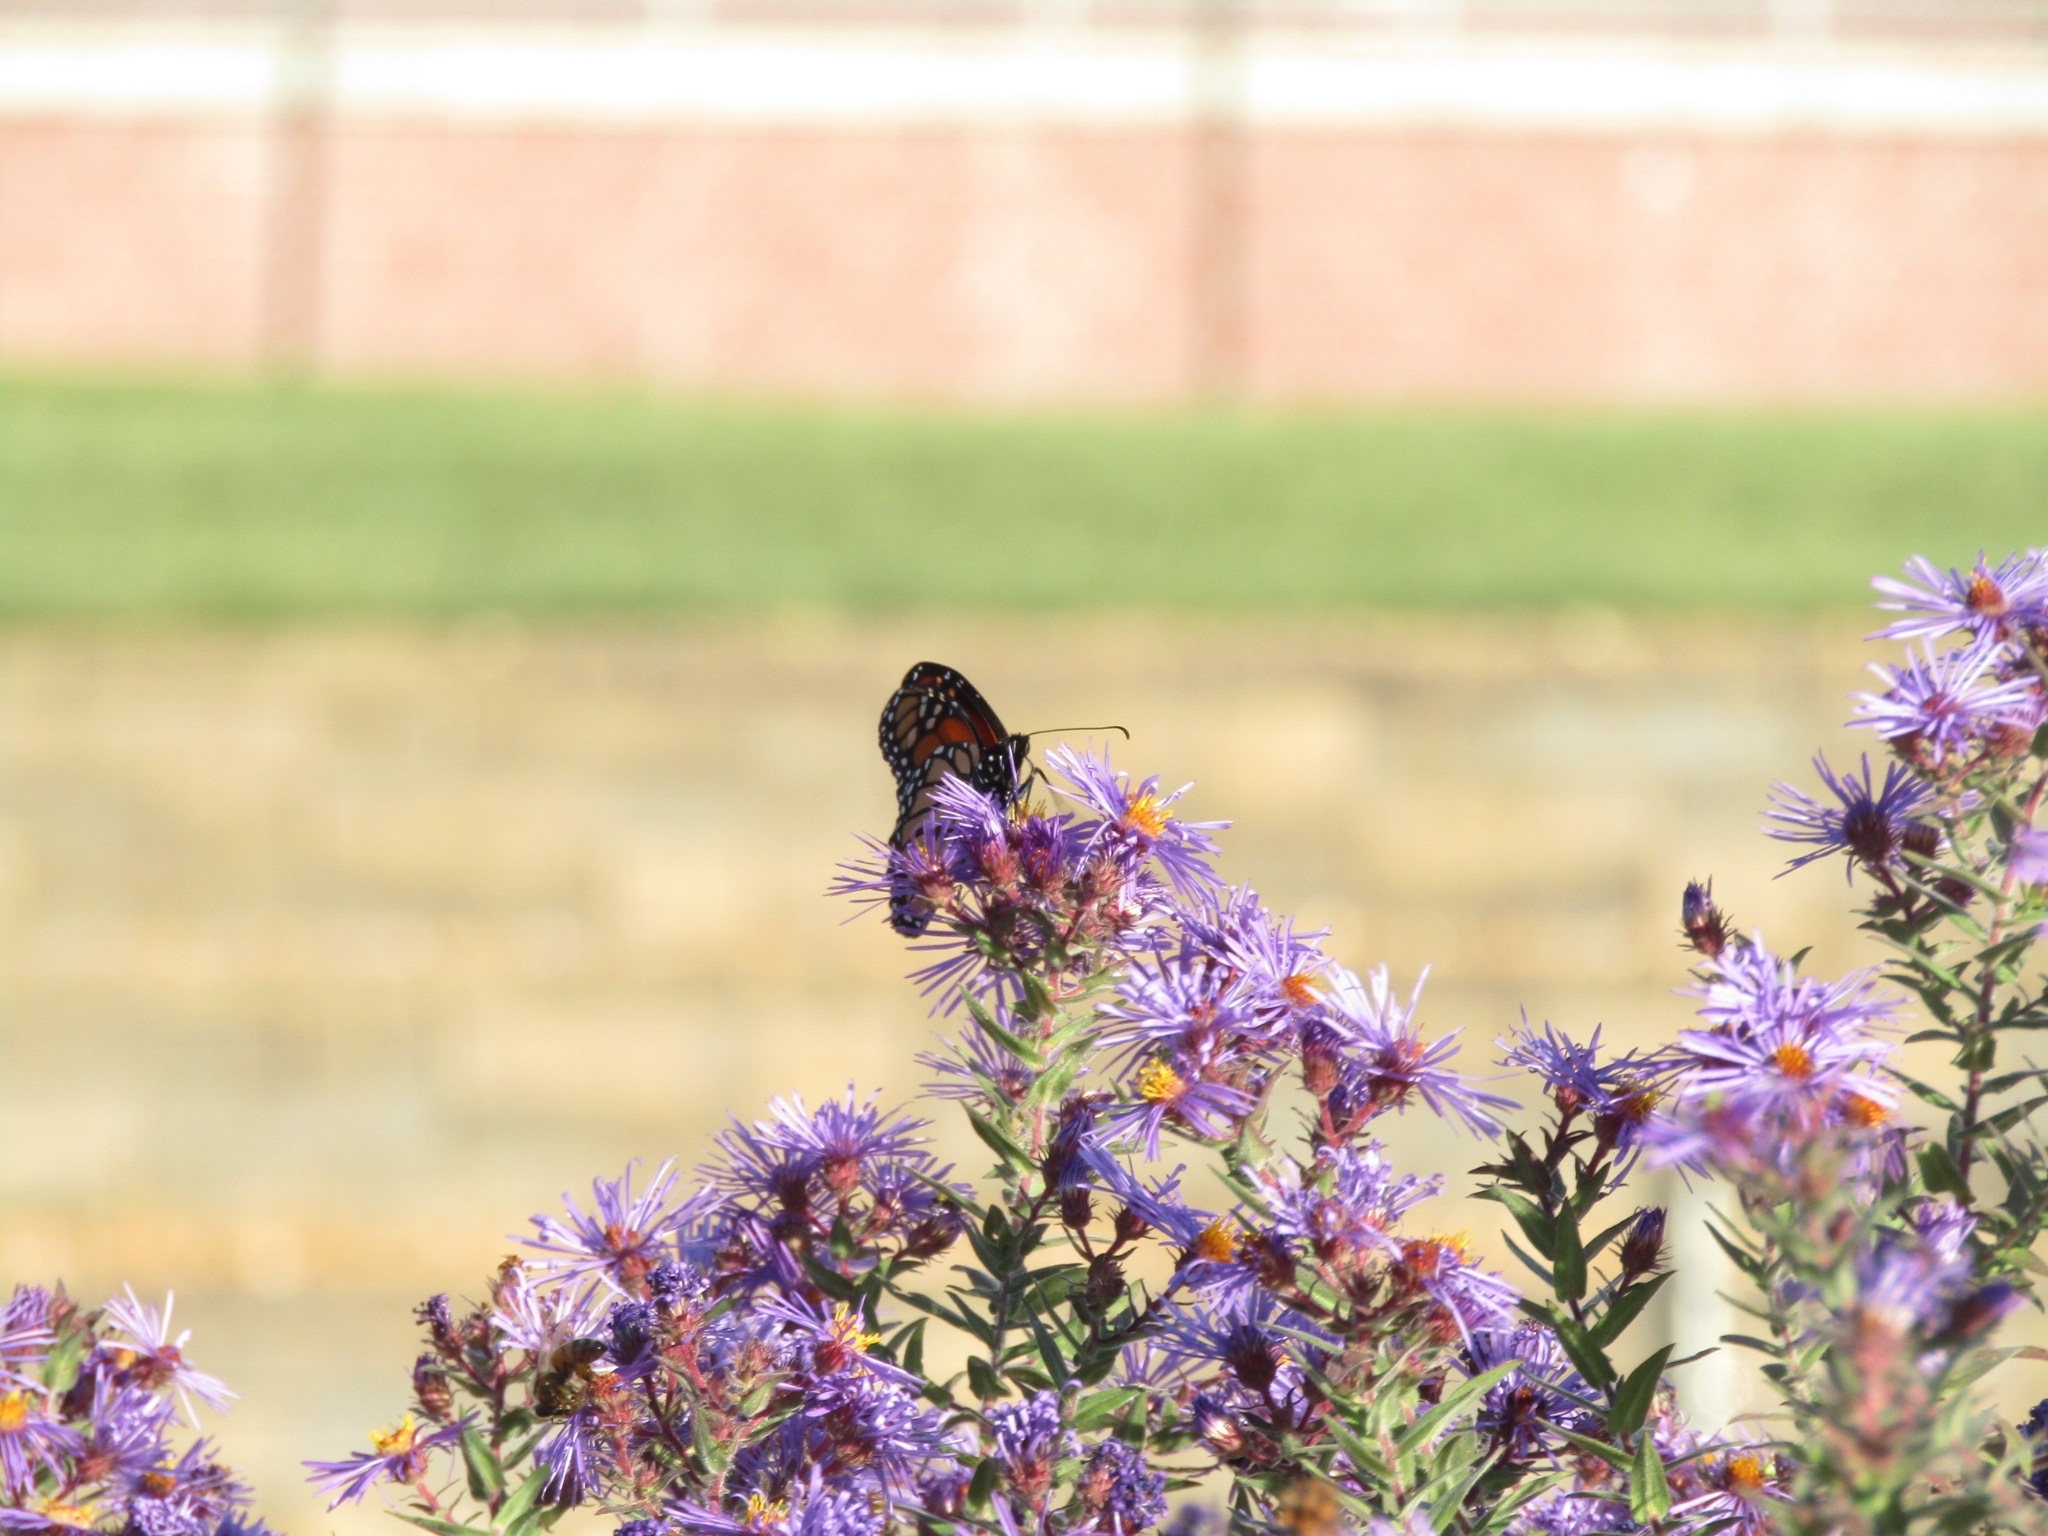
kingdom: Animalia
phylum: Arthropoda
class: Insecta
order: Lepidoptera
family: Nymphalidae
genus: Danaus
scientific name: Danaus plexippus
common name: Monarch
